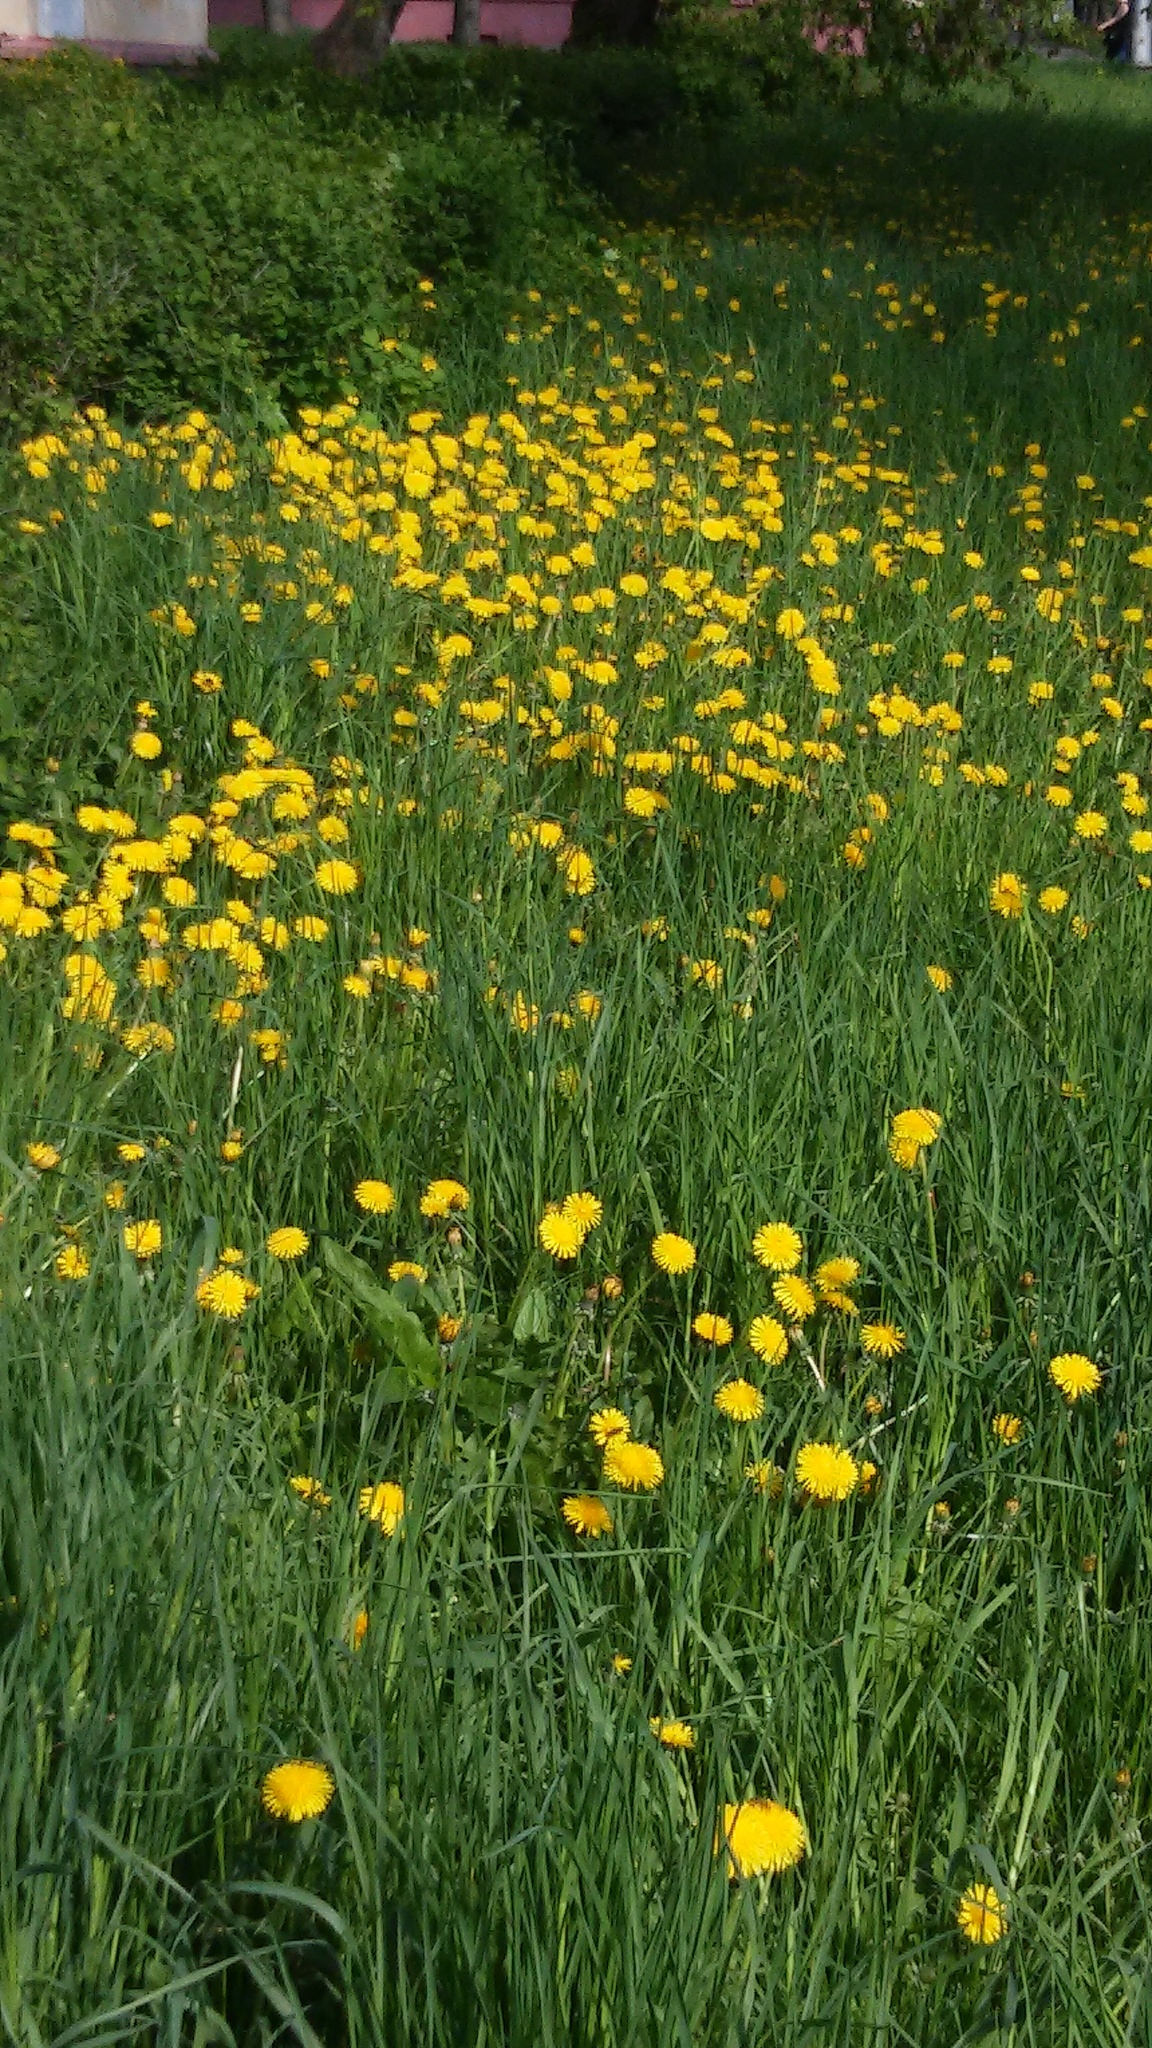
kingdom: Plantae
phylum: Tracheophyta
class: Magnoliopsida
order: Asterales
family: Asteraceae
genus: Taraxacum
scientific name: Taraxacum officinale
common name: Common dandelion
